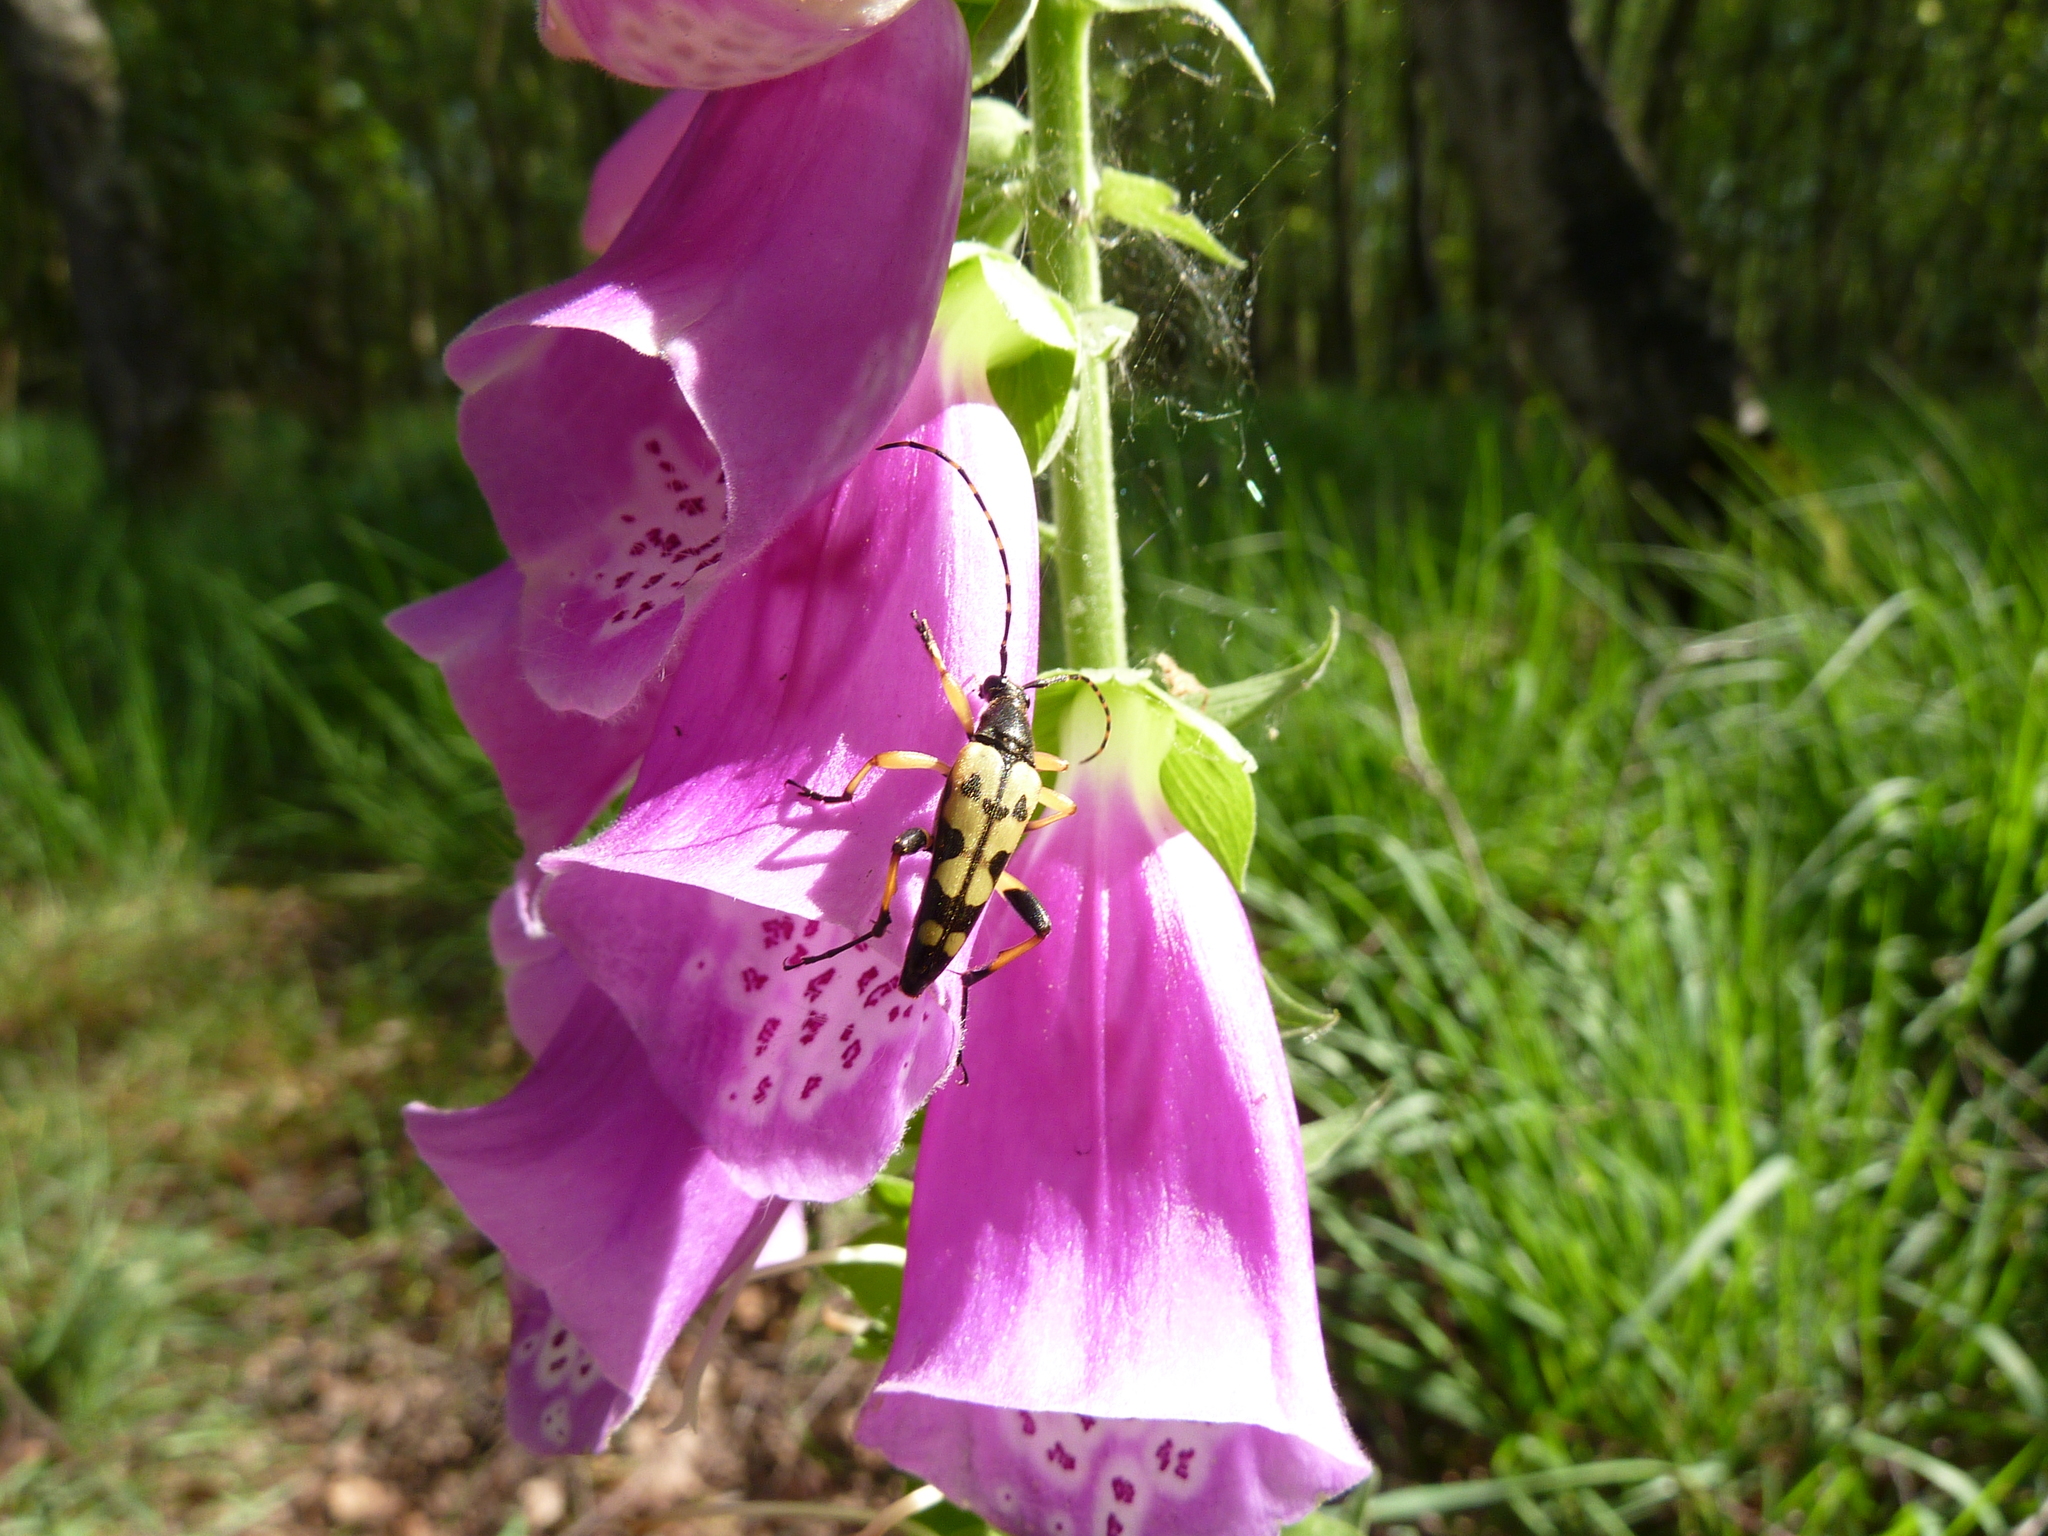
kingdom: Animalia
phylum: Arthropoda
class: Insecta
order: Coleoptera
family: Cerambycidae
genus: Rutpela
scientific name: Rutpela maculata
